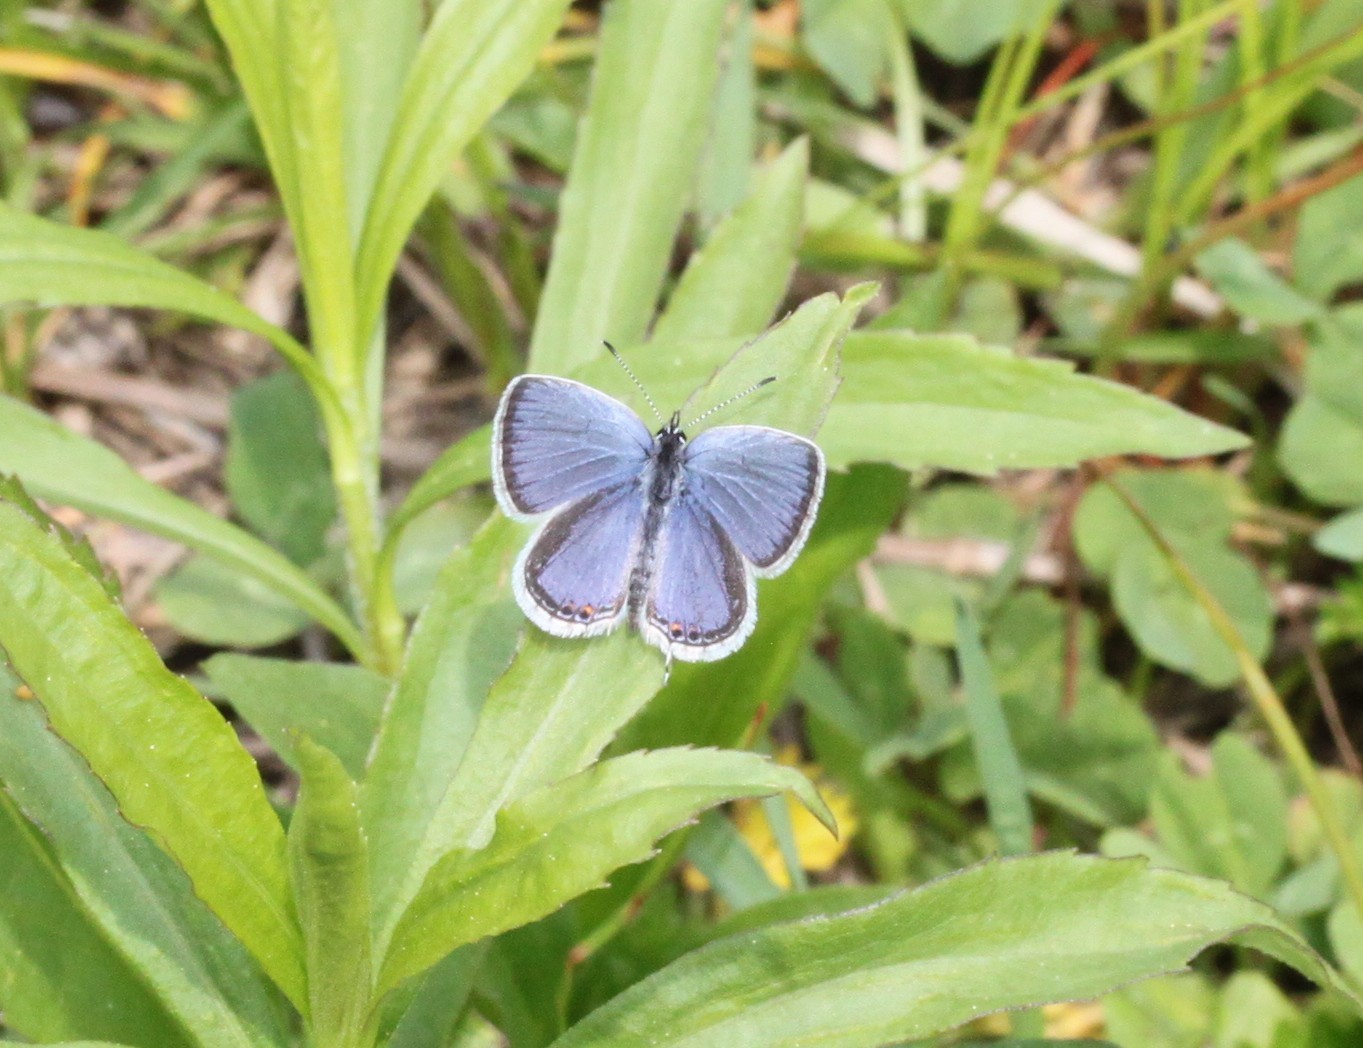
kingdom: Animalia
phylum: Arthropoda
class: Insecta
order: Lepidoptera
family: Lycaenidae
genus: Elkalyce
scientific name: Elkalyce comyntas
